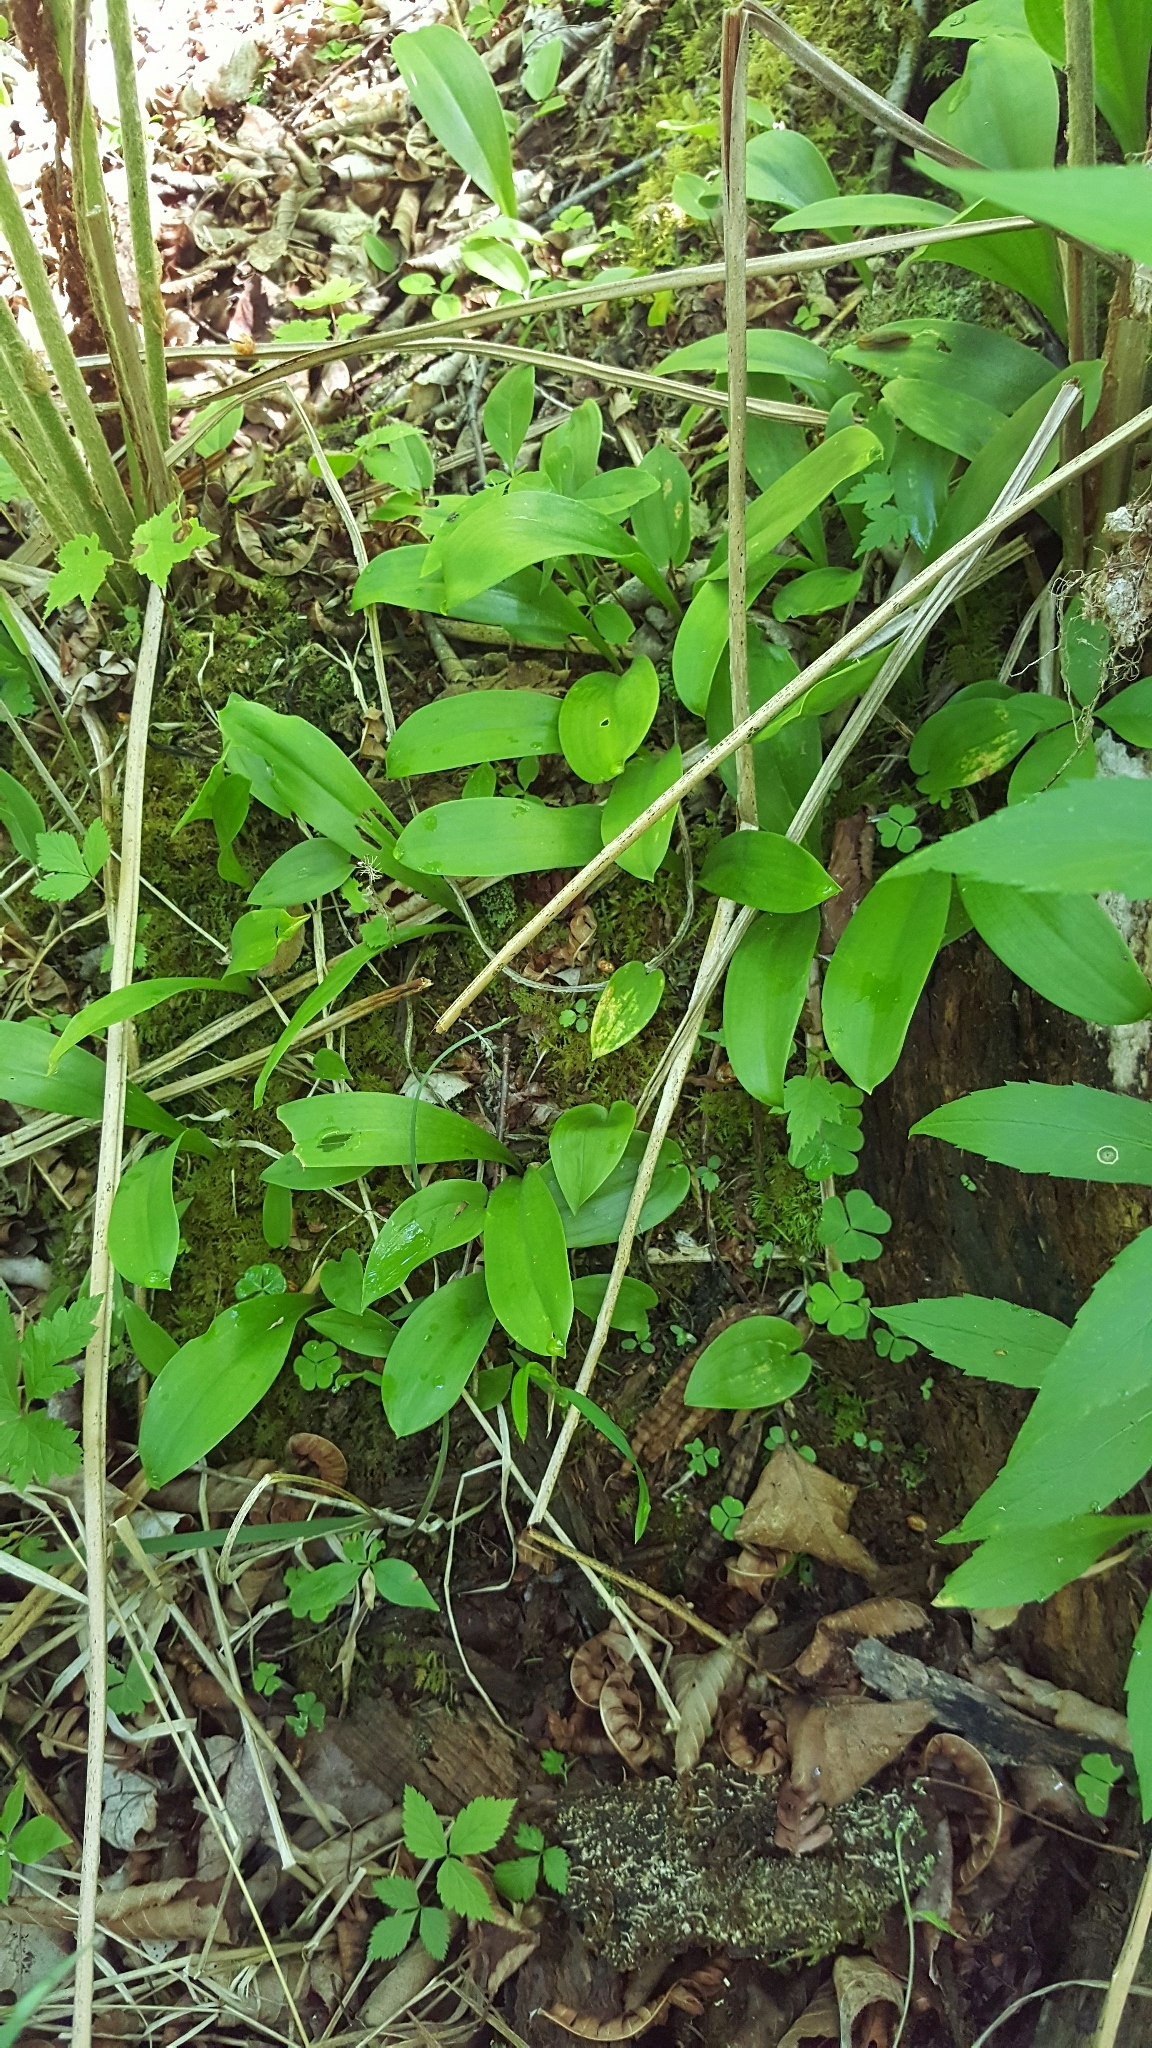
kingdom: Plantae
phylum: Tracheophyta
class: Liliopsida
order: Liliales
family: Liliaceae
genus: Clintonia
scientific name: Clintonia borealis
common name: Yellow clintonia
